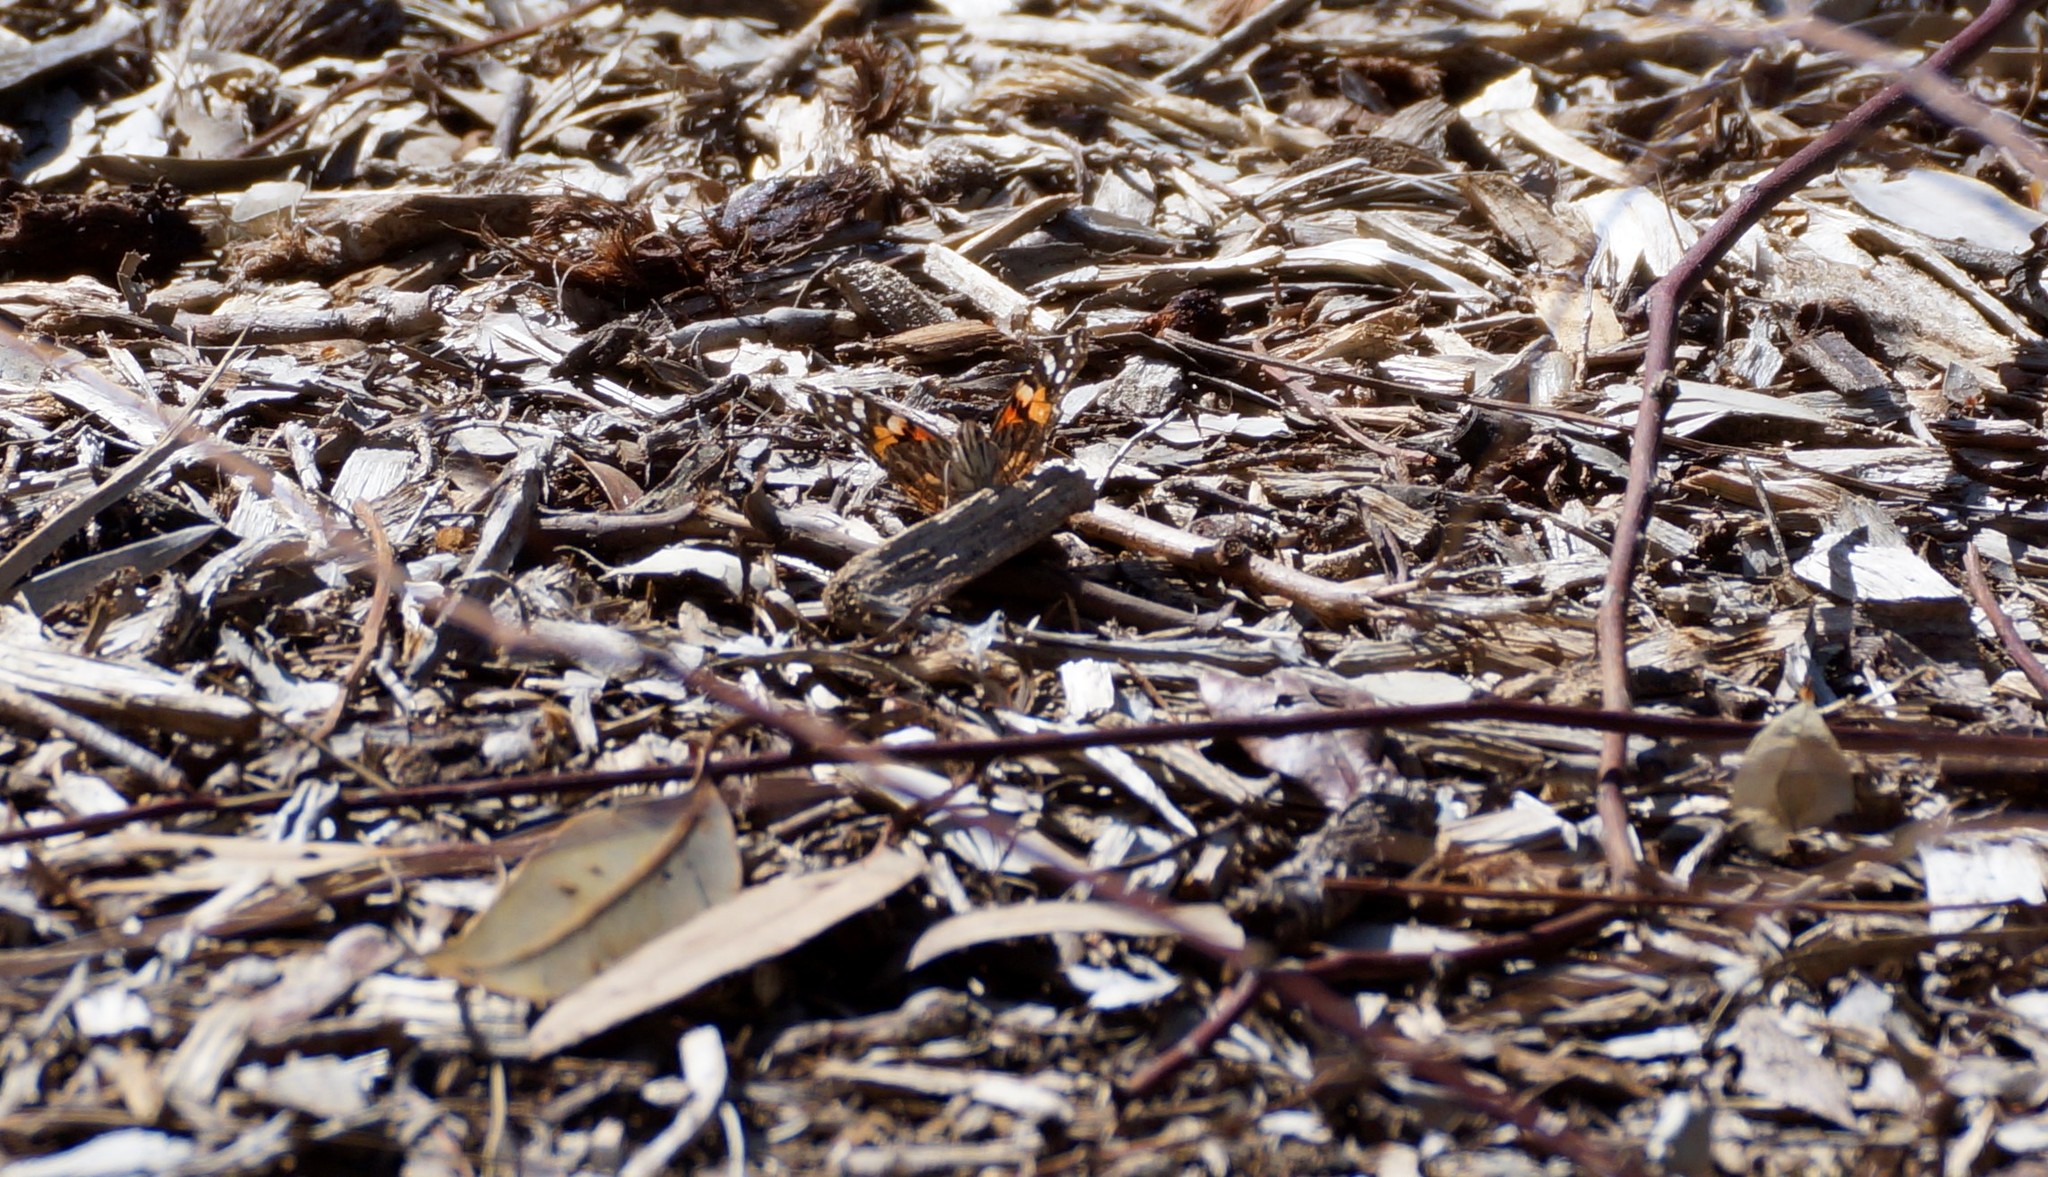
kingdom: Animalia
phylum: Arthropoda
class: Insecta
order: Lepidoptera
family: Nymphalidae
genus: Vanessa
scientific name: Vanessa kershawi
